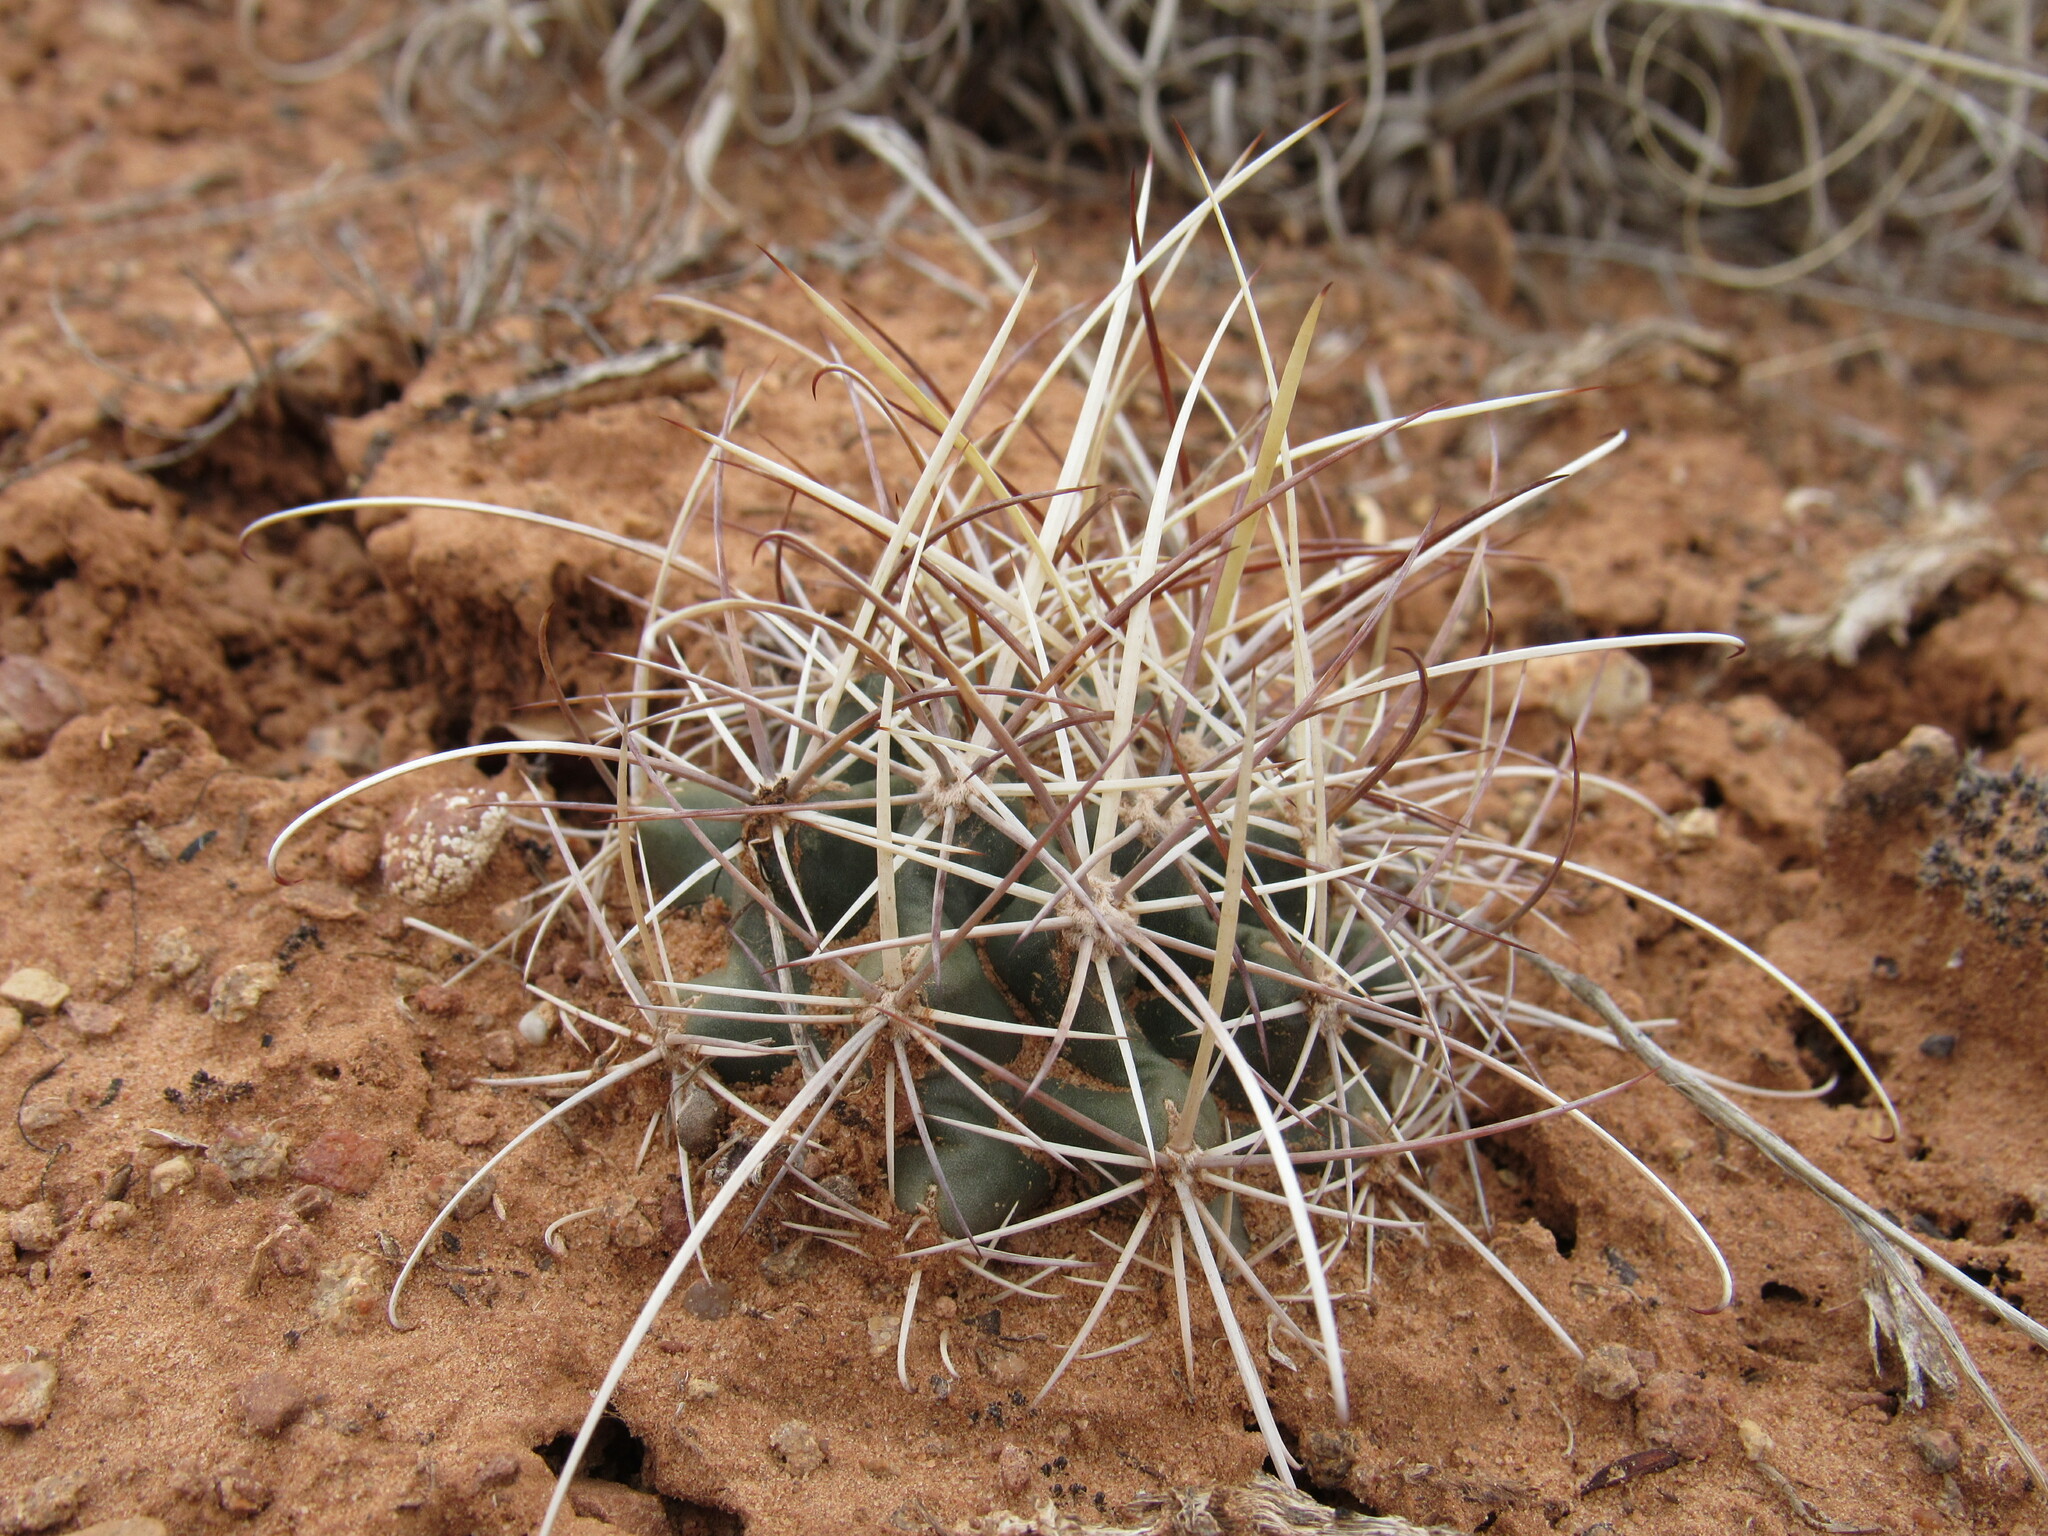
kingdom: Plantae
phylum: Tracheophyta
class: Magnoliopsida
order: Caryophyllales
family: Cactaceae
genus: Sclerocactus
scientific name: Sclerocactus parviflorus
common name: Small-flower fishhook cactus
